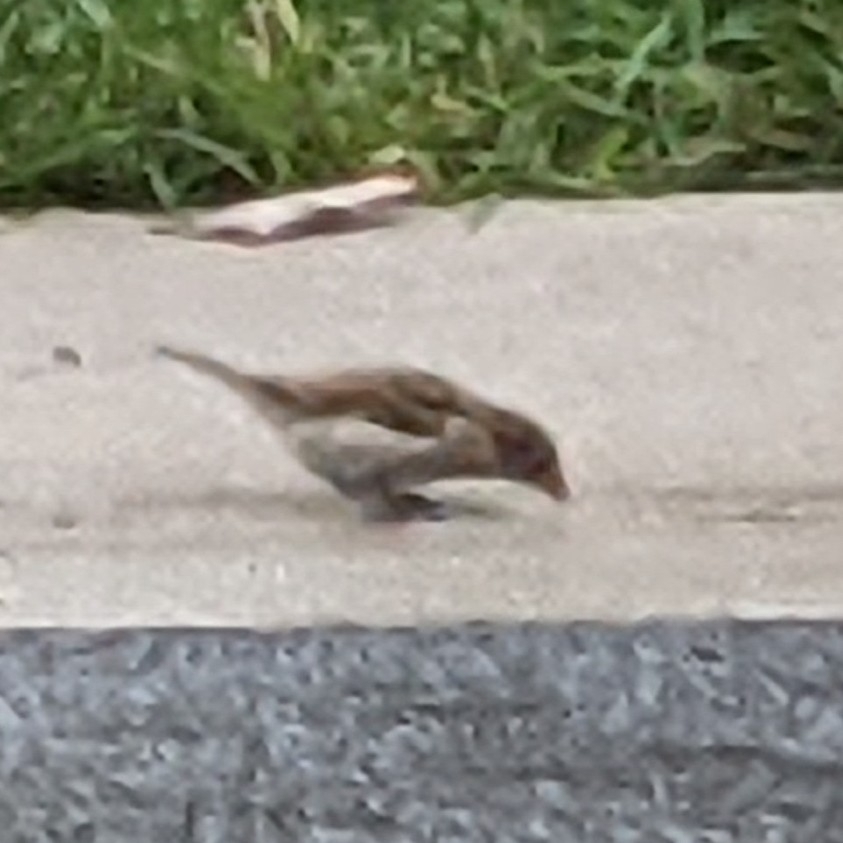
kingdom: Animalia
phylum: Chordata
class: Aves
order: Passeriformes
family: Passeridae
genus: Passer
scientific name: Passer domesticus
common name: House sparrow
